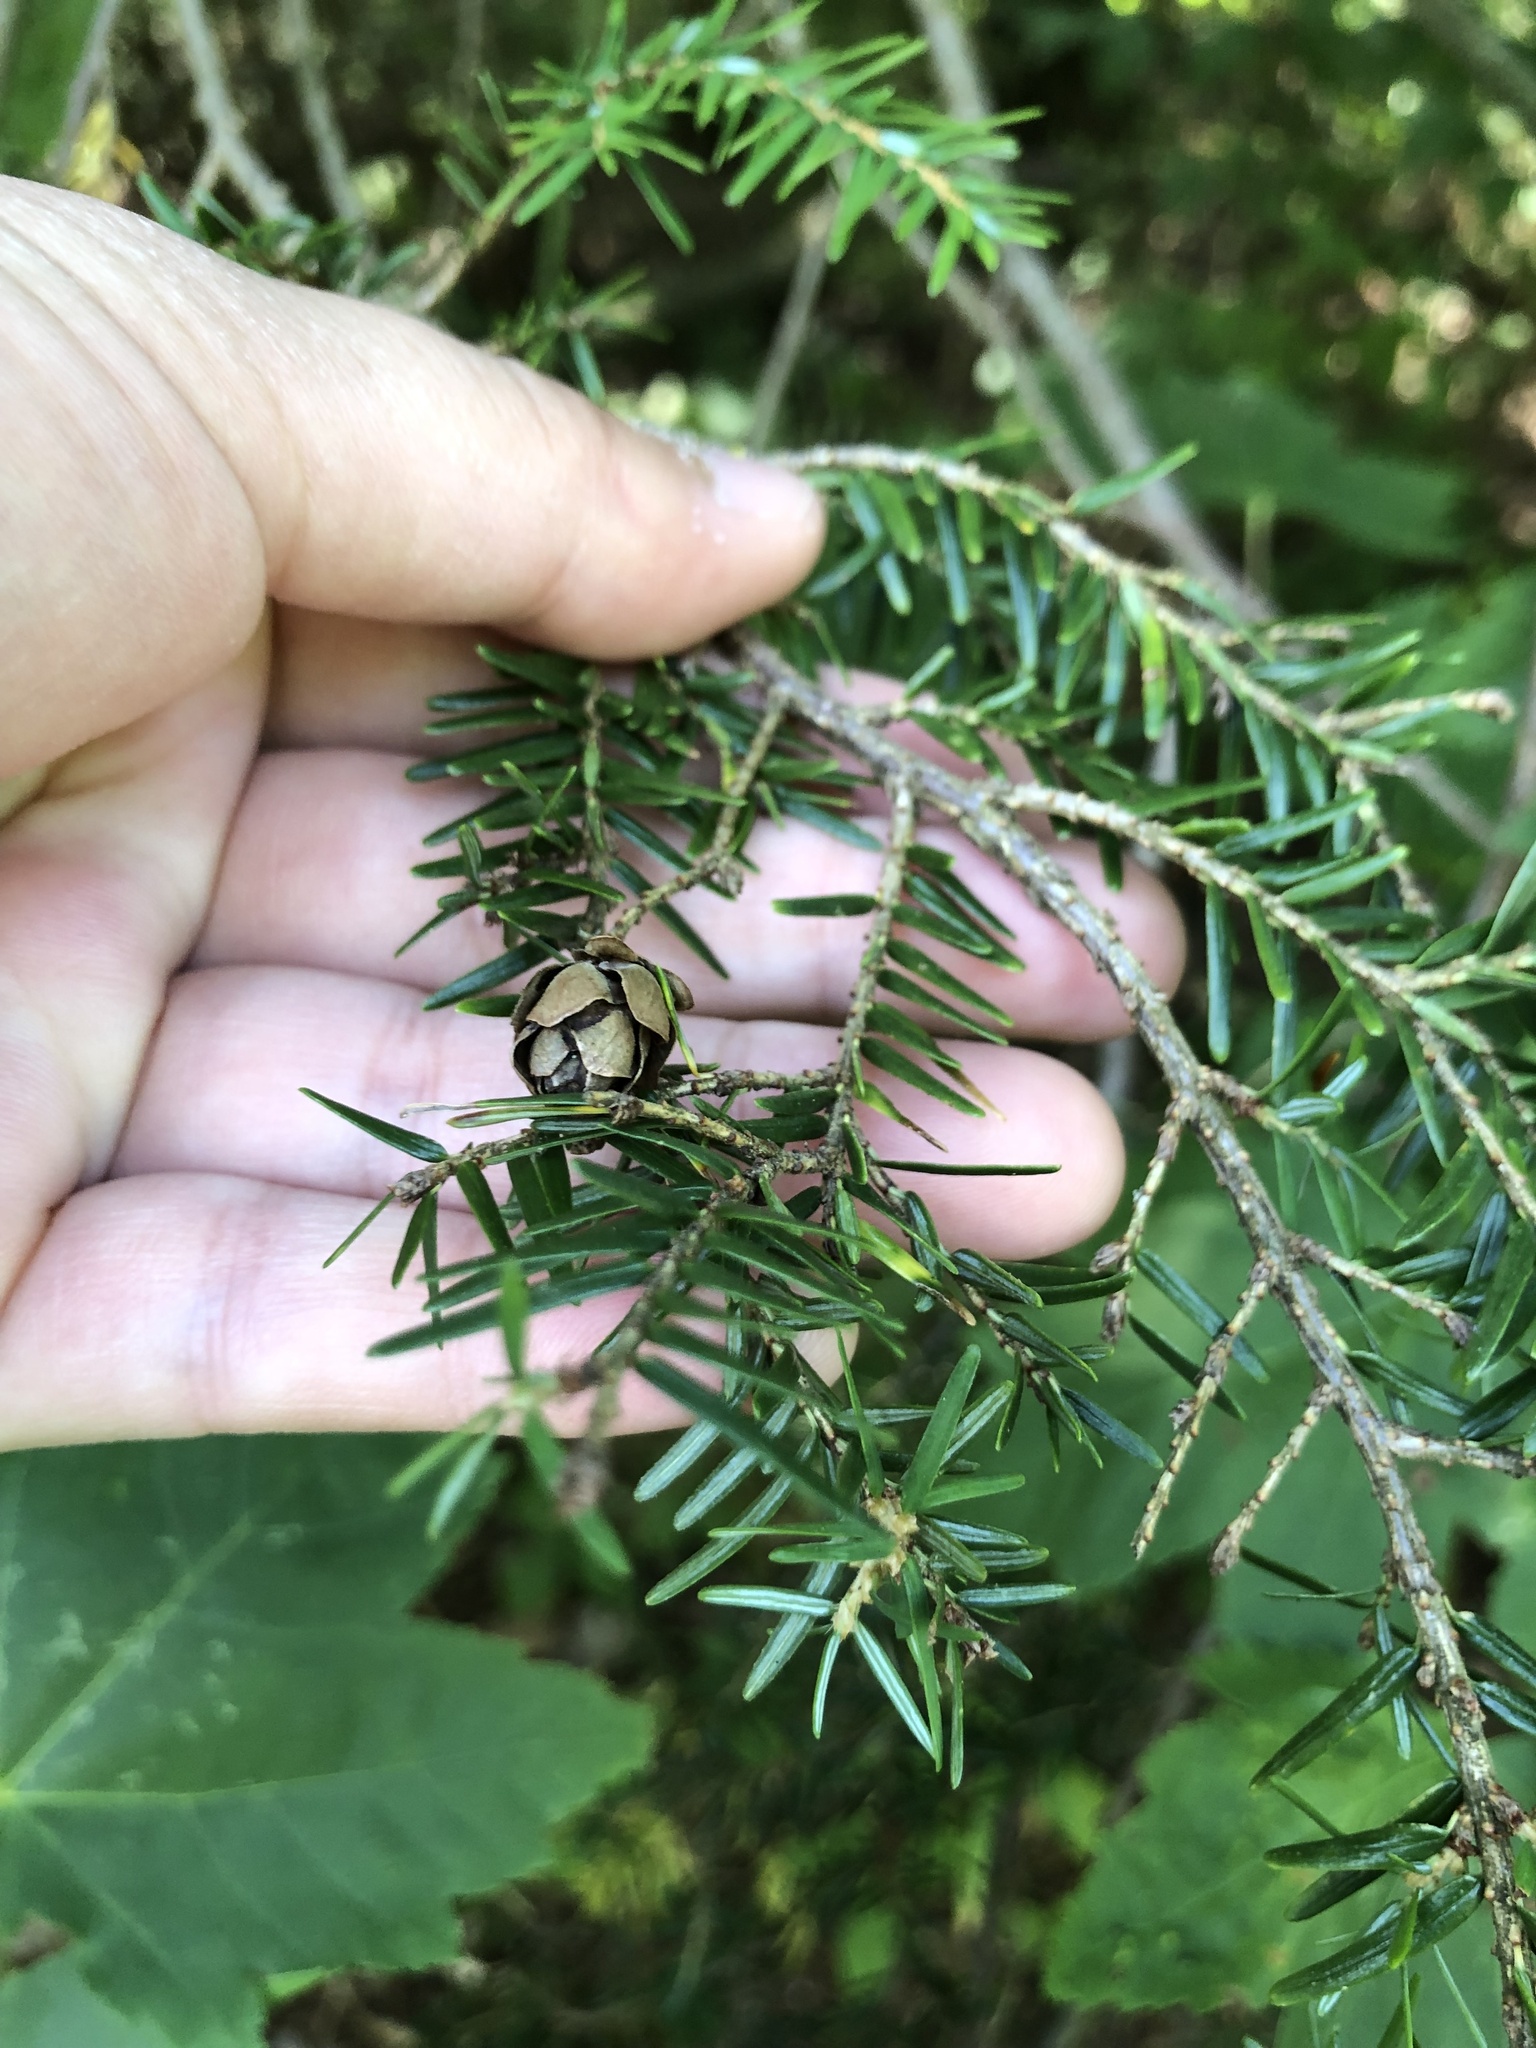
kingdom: Plantae
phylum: Tracheophyta
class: Pinopsida
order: Pinales
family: Pinaceae
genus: Tsuga
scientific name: Tsuga canadensis
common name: Eastern hemlock
